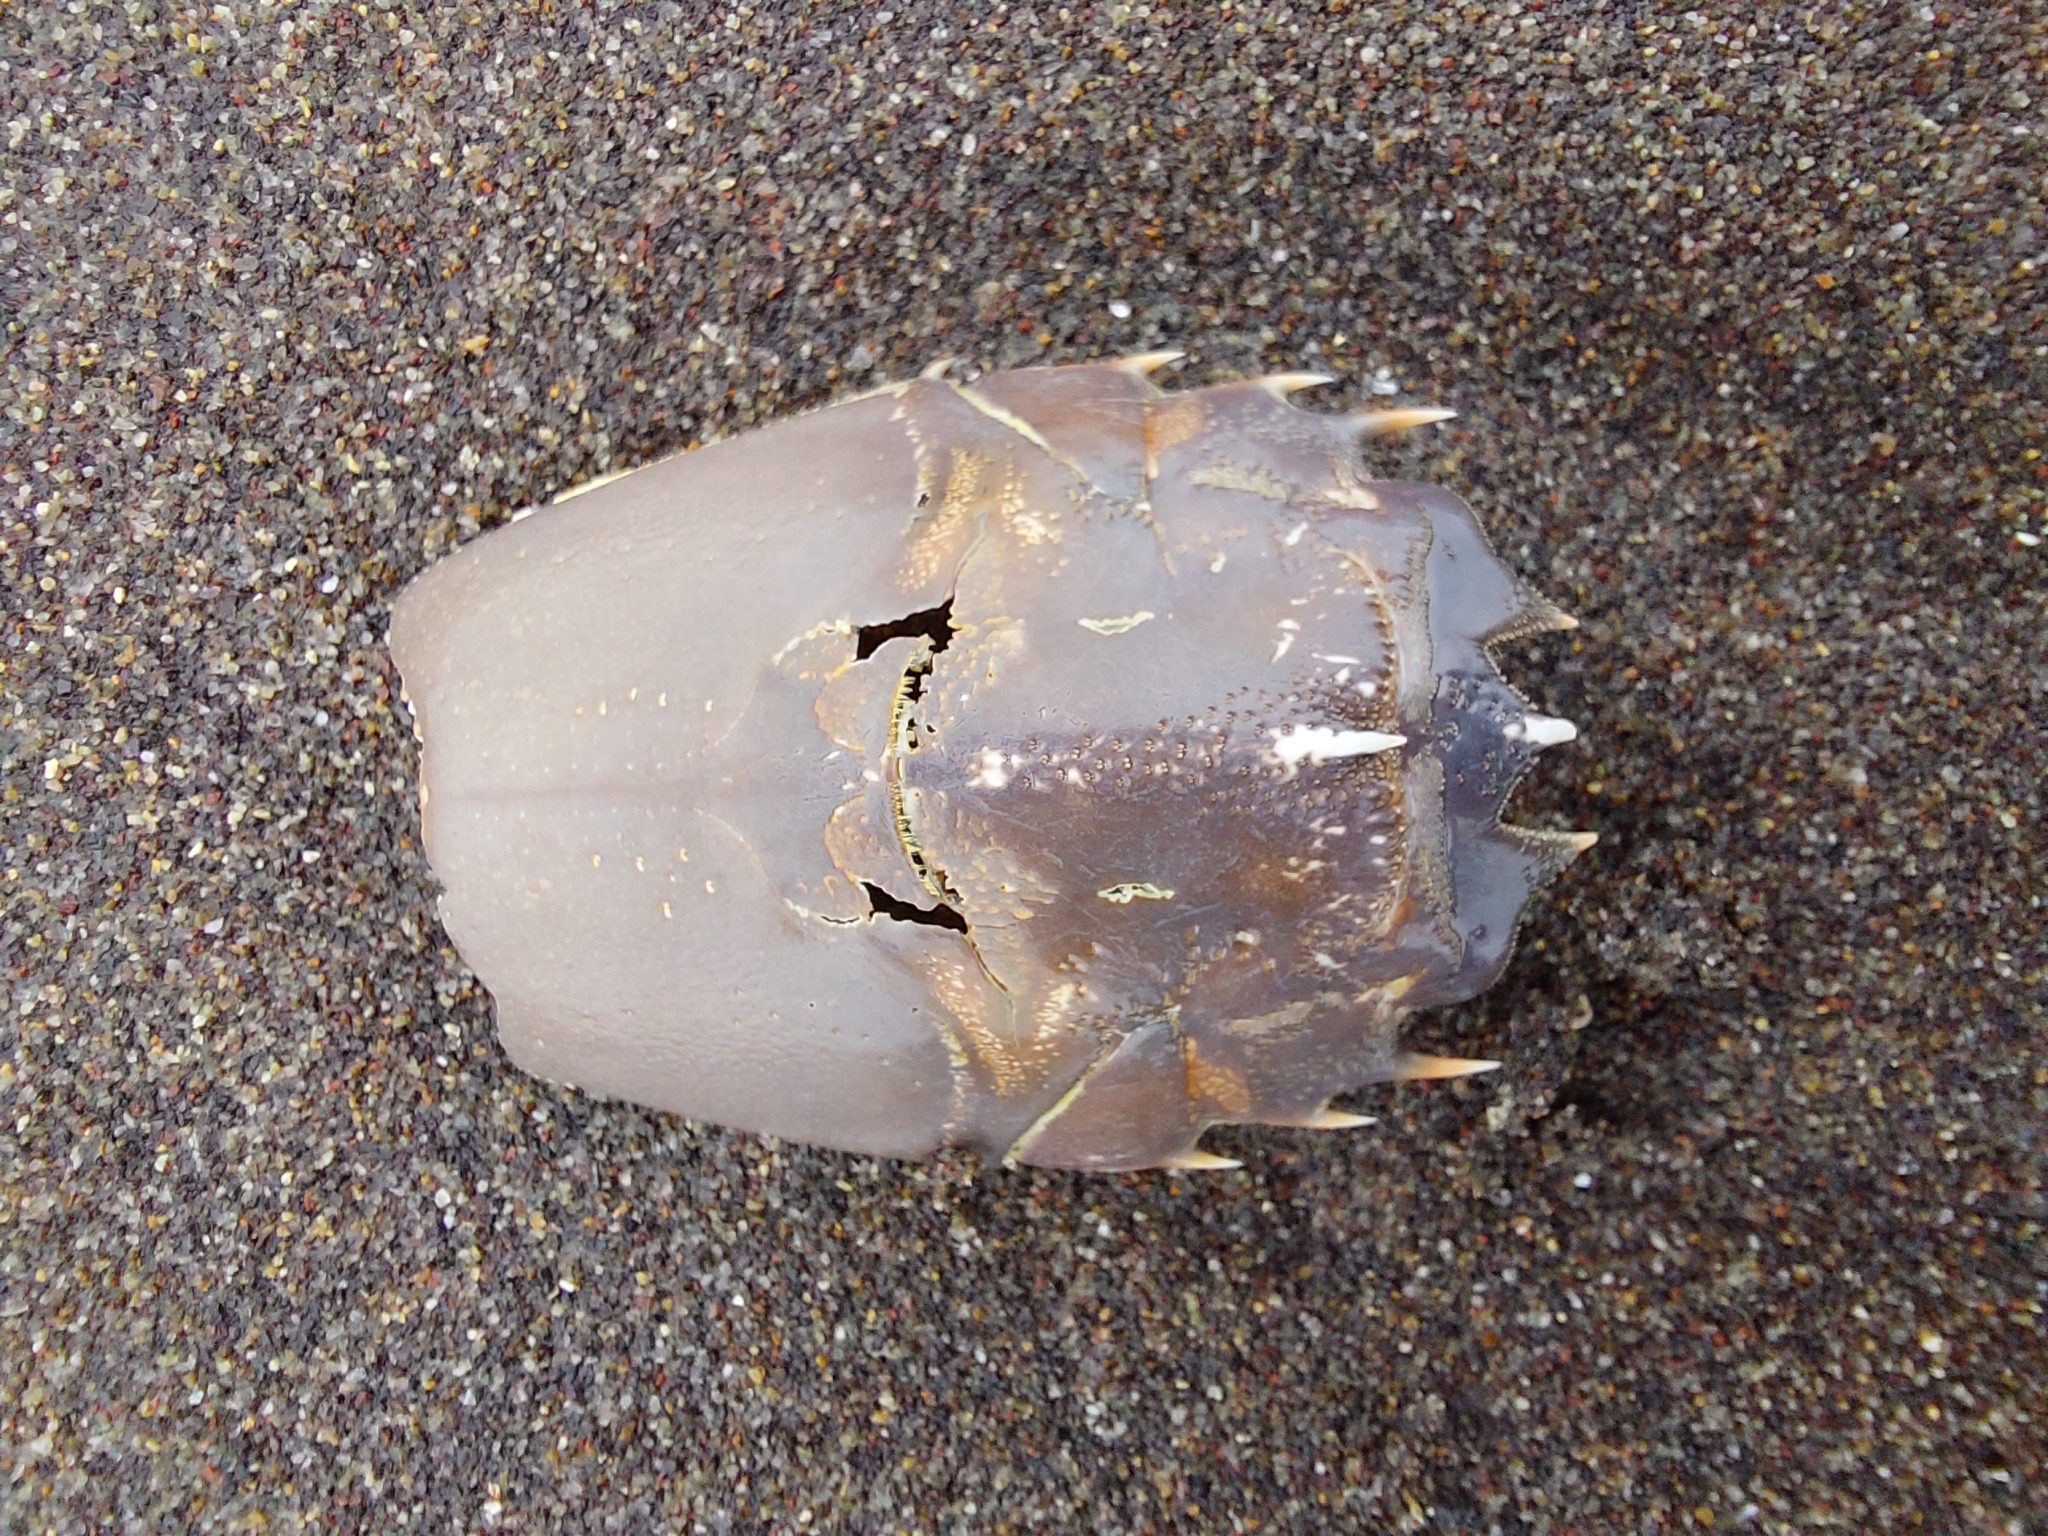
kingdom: Animalia
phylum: Arthropoda
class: Malacostraca
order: Decapoda
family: Blepharipodidae
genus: Blepharipoda
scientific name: Blepharipoda spinosa
